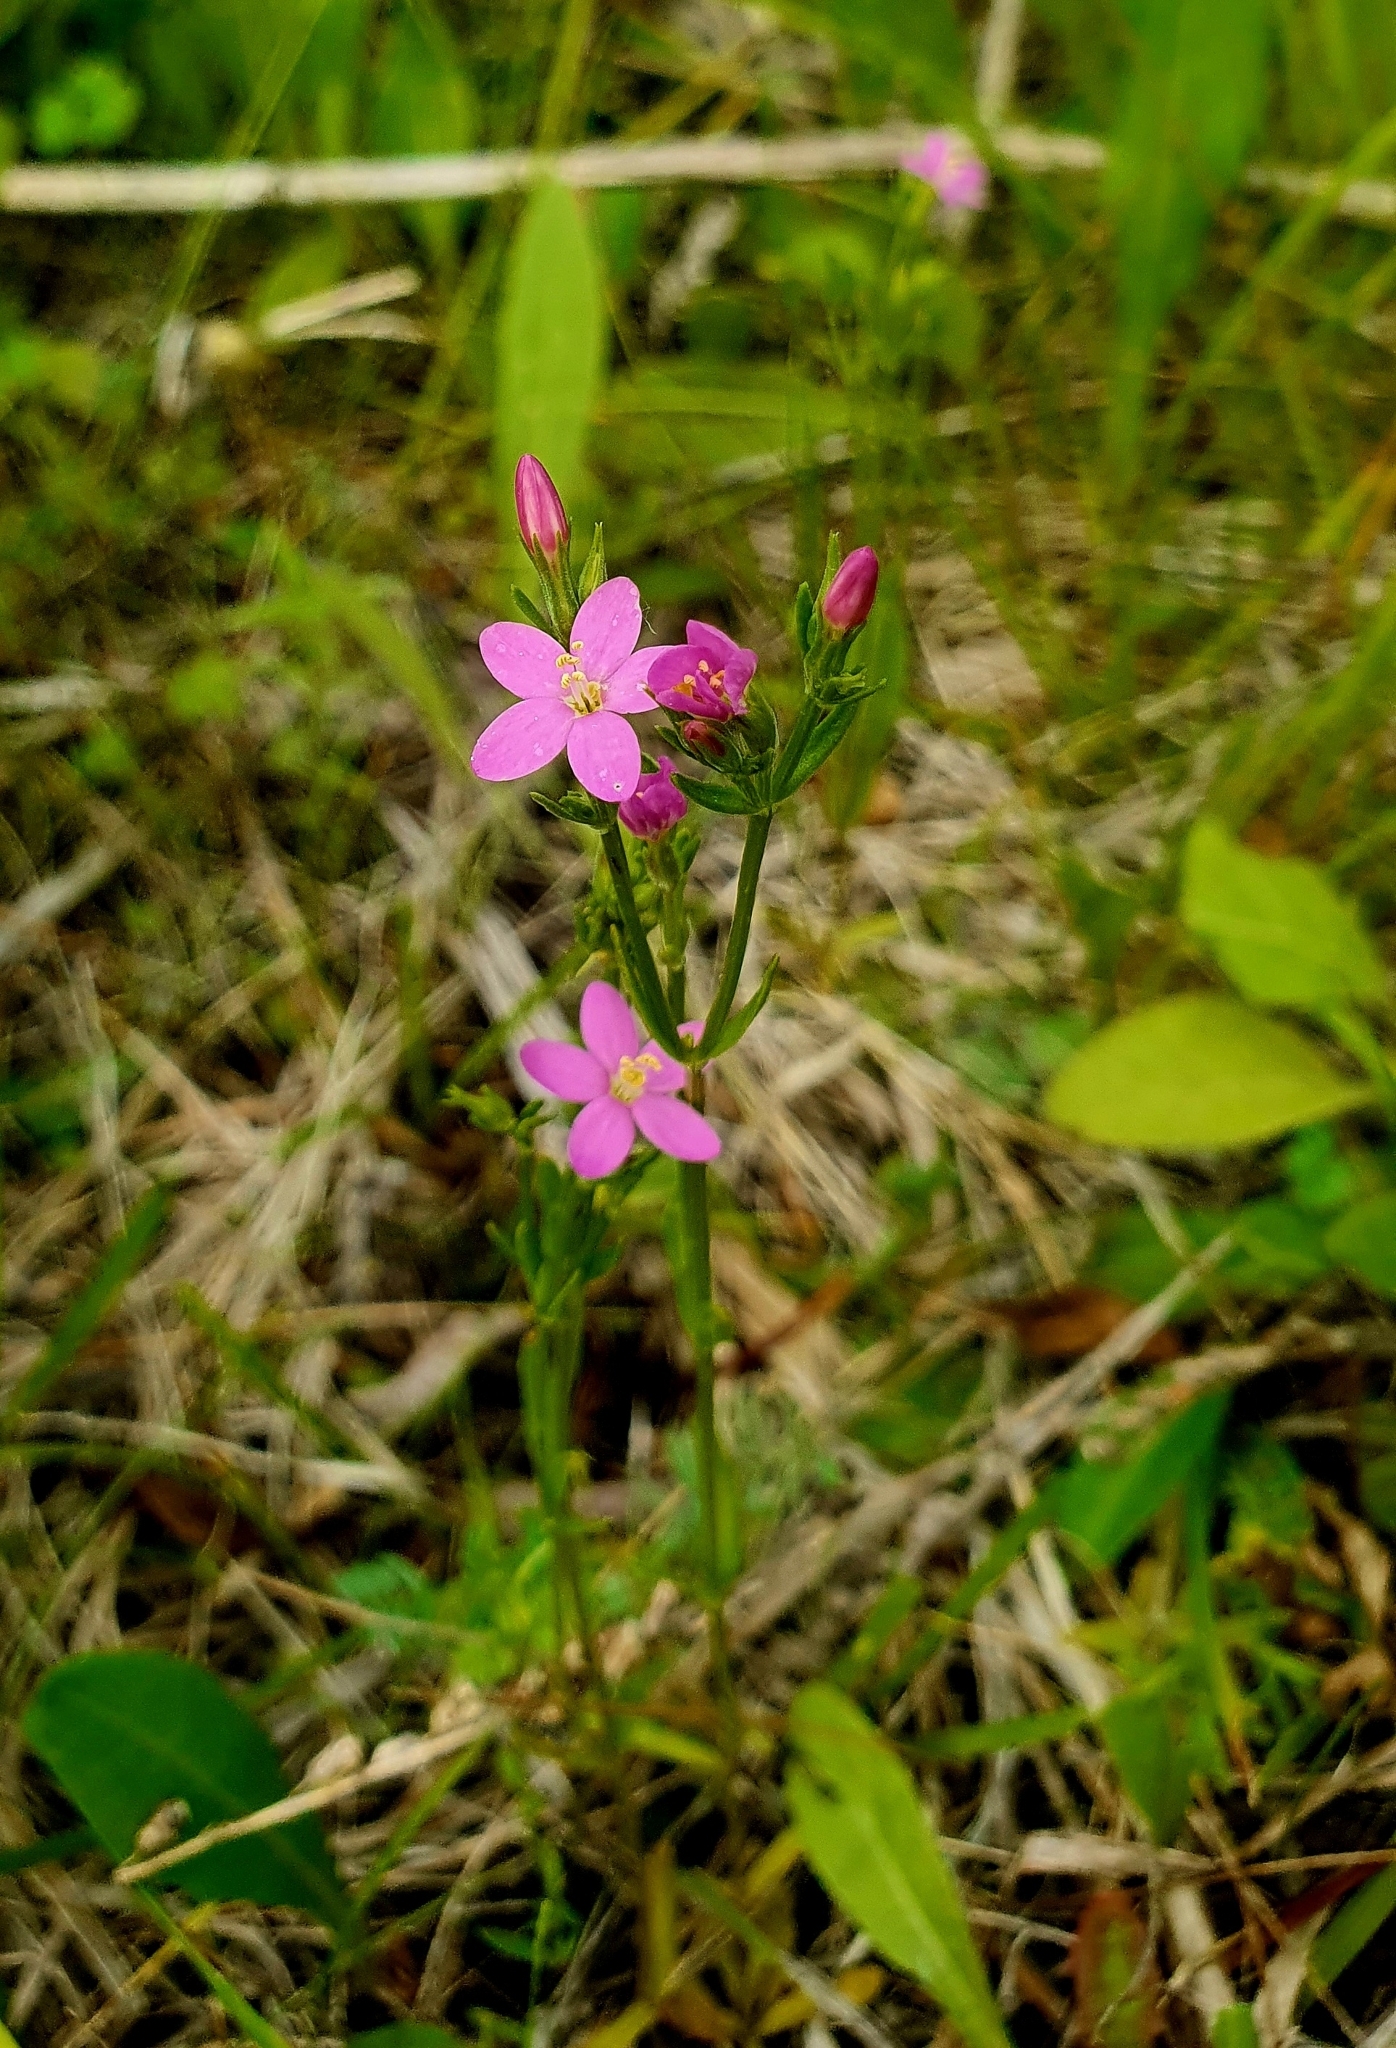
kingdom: Plantae
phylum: Tracheophyta
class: Magnoliopsida
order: Gentianales
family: Gentianaceae
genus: Centaurium
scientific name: Centaurium littorale
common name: Seaside centaury
